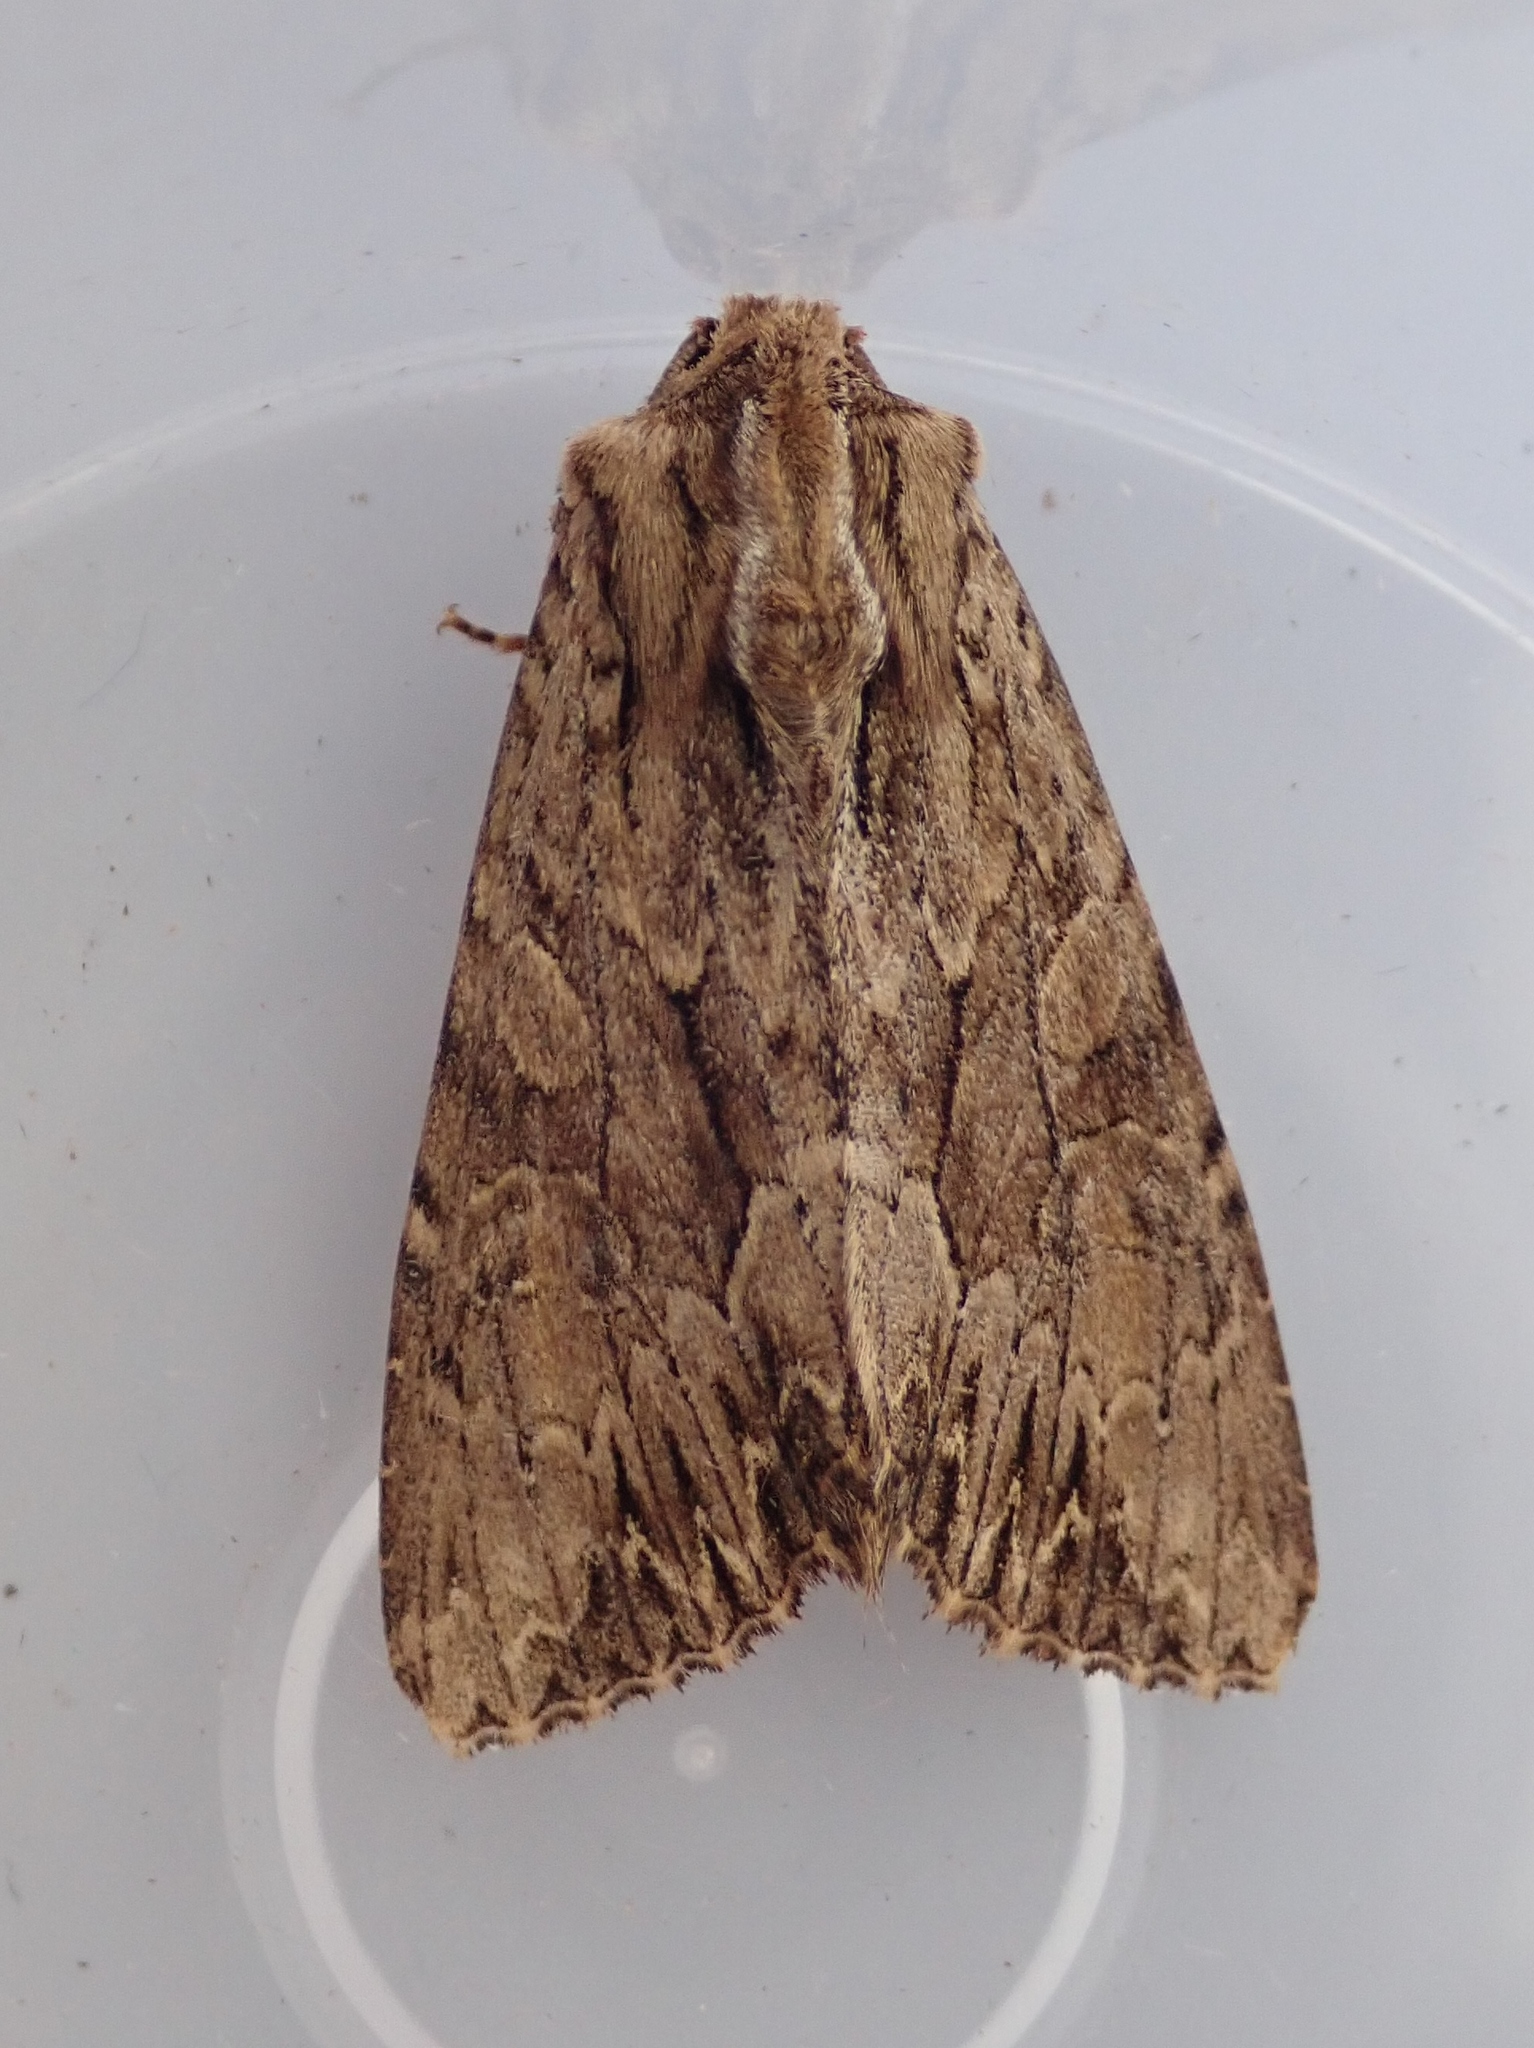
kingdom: Animalia
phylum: Arthropoda
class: Insecta
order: Lepidoptera
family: Noctuidae
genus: Apamea
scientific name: Apamea monoglypha
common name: Dark arches
